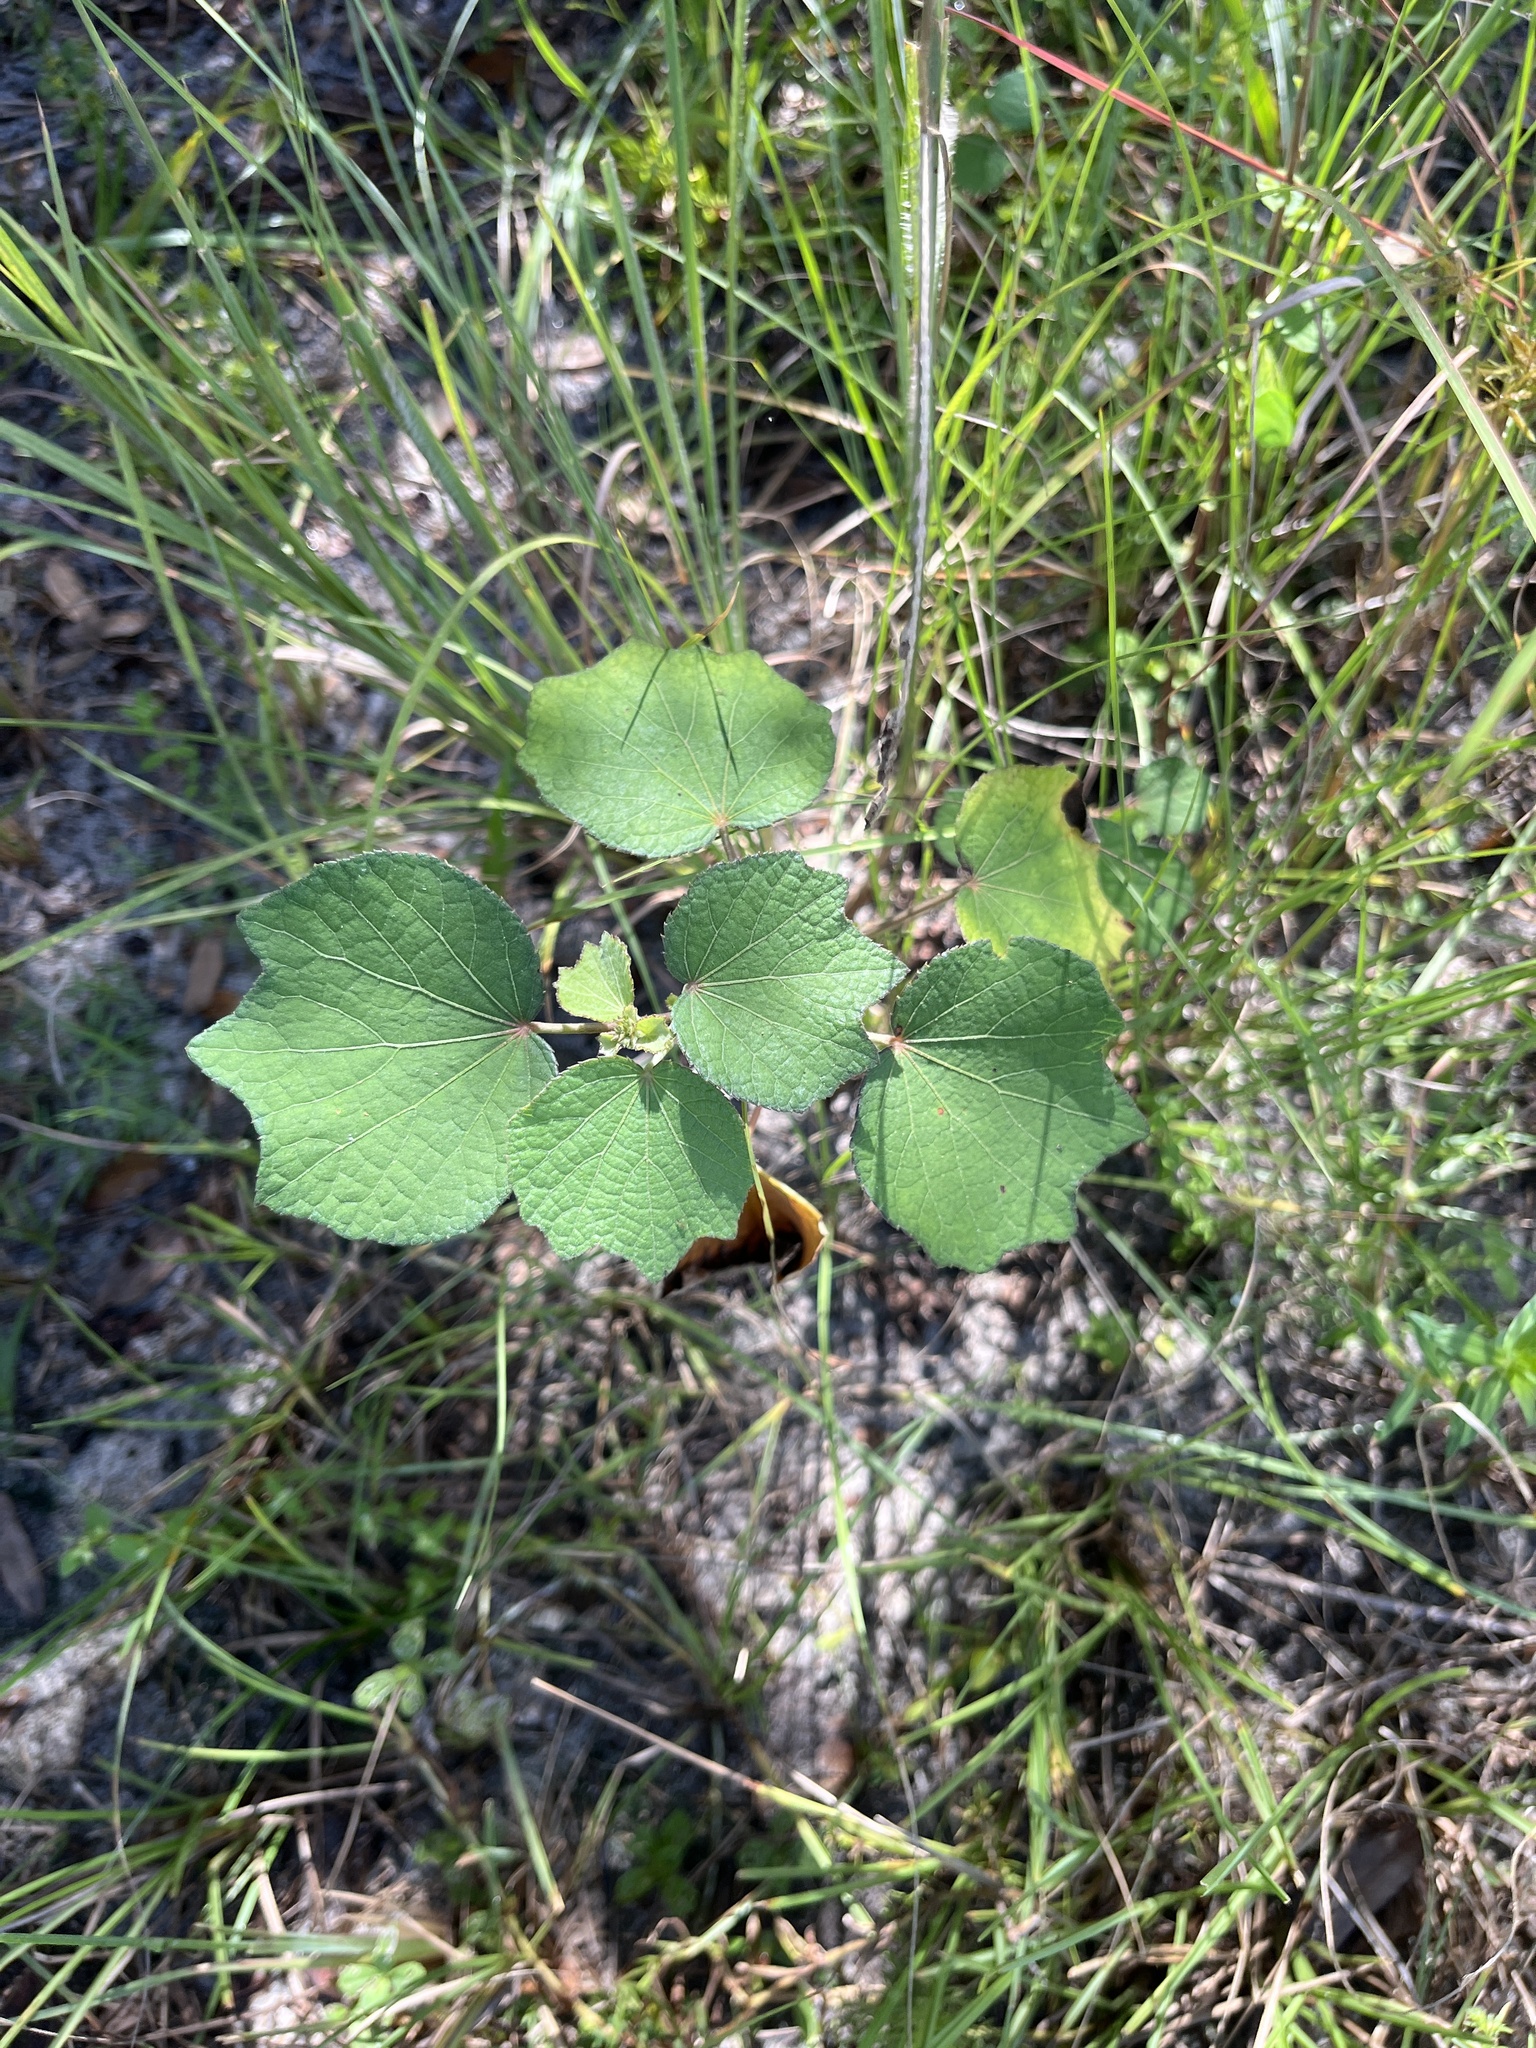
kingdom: Plantae
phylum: Tracheophyta
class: Magnoliopsida
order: Malvales
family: Malvaceae
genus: Urena
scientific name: Urena lobata
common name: Caesarweed
